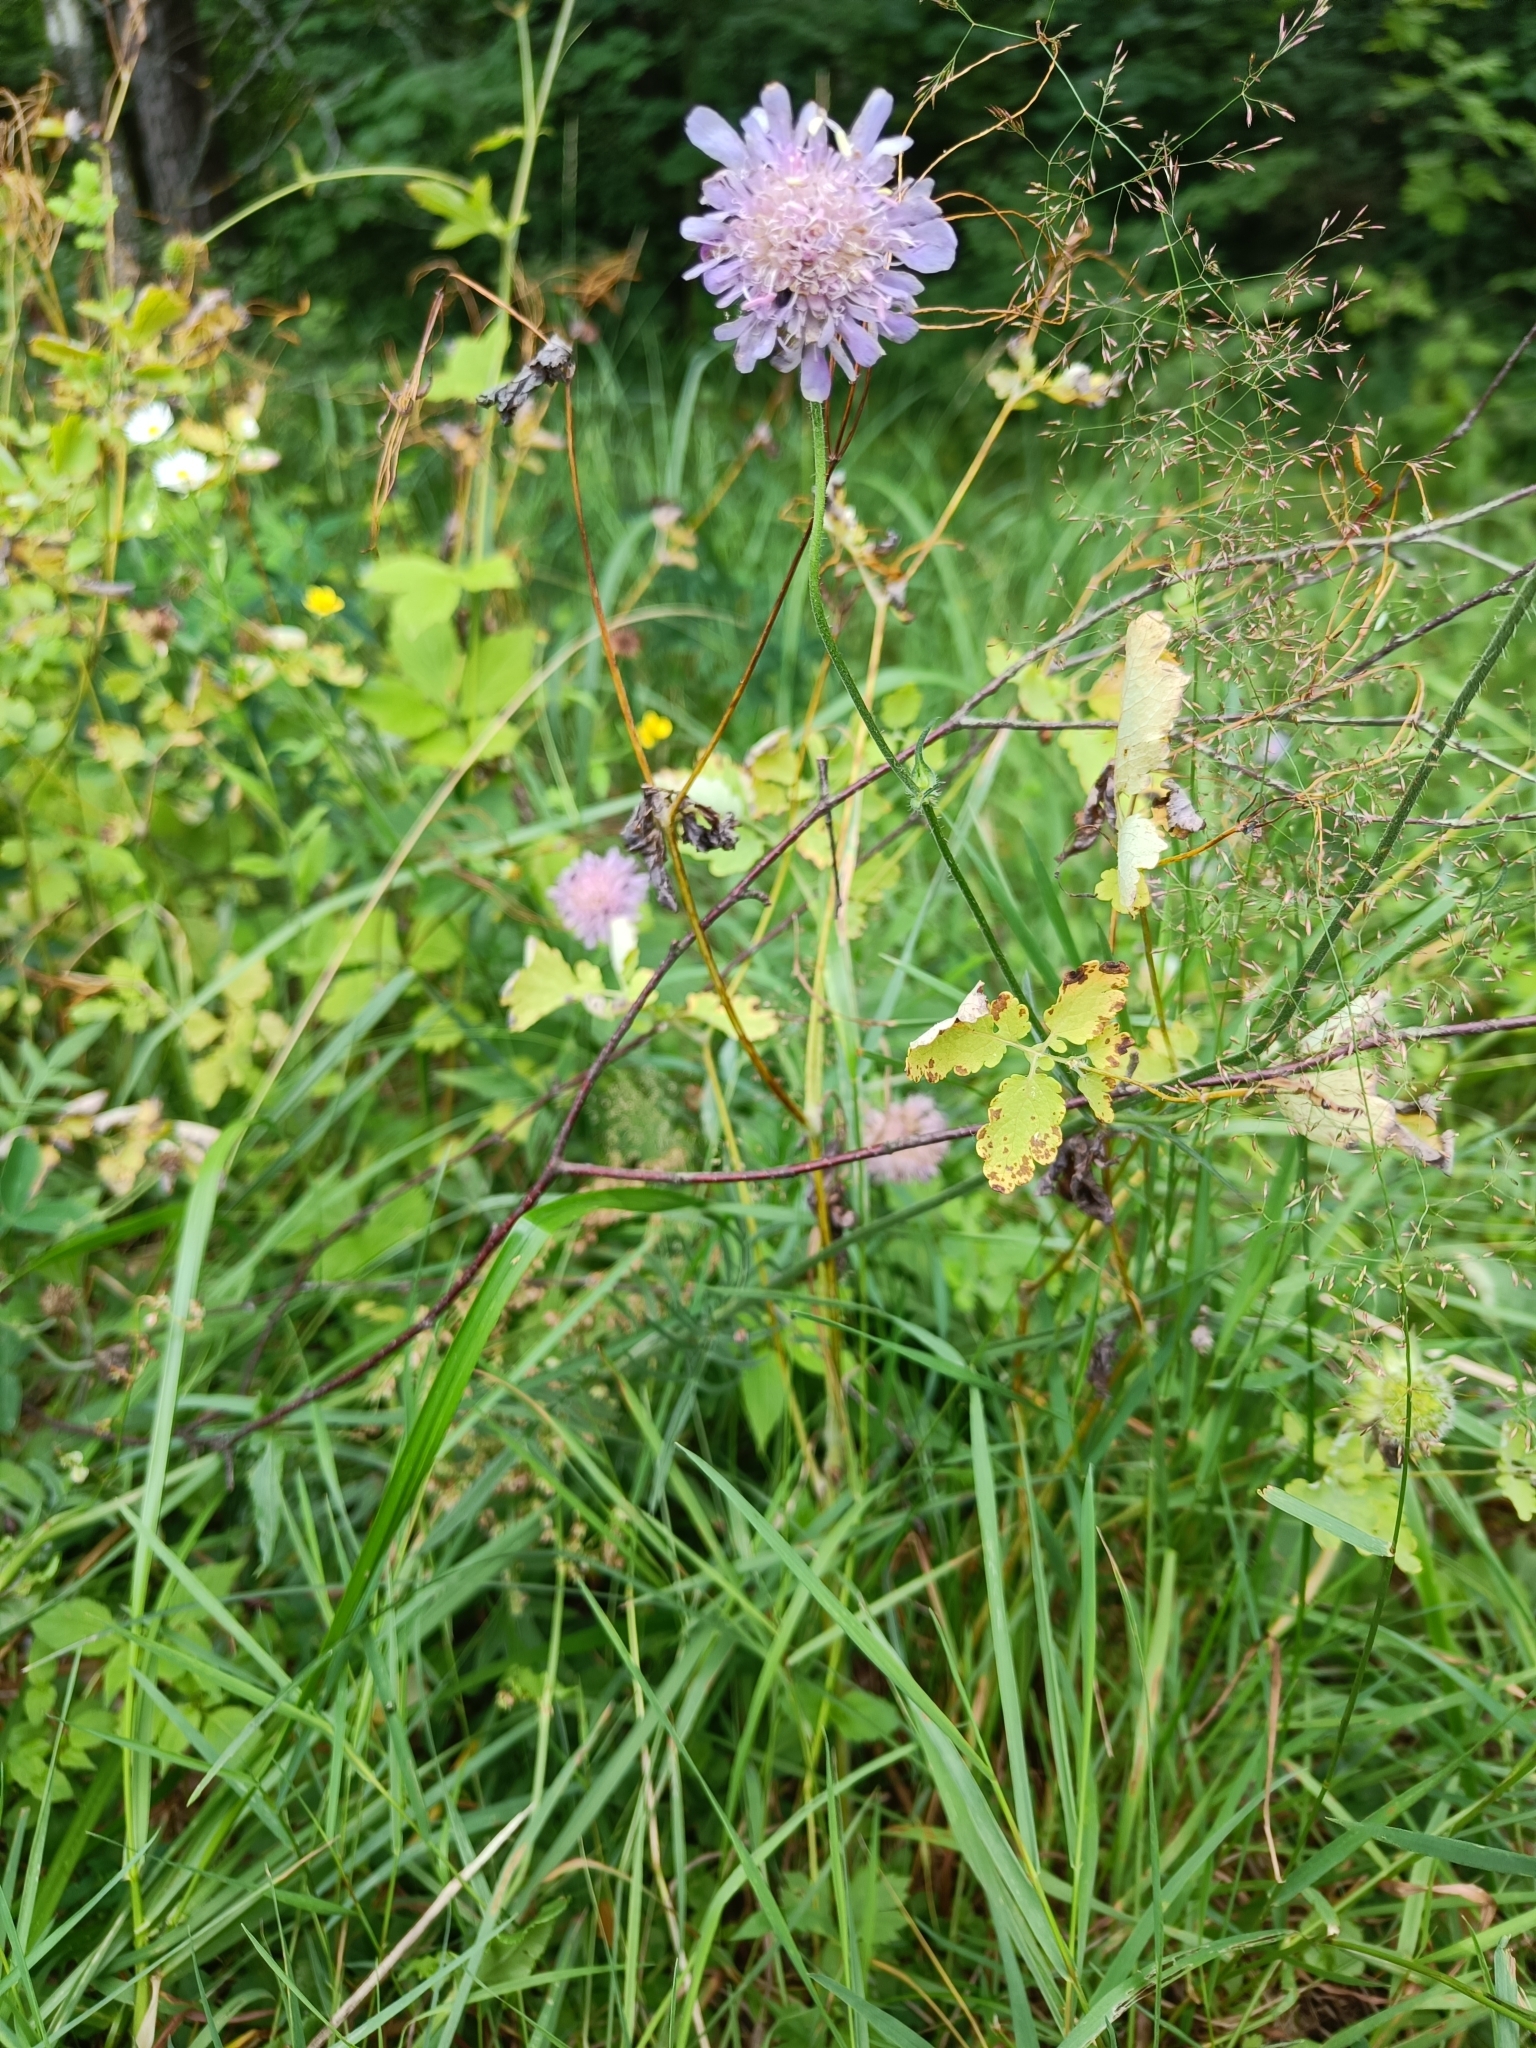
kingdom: Plantae
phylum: Tracheophyta
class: Magnoliopsida
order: Dipsacales
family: Caprifoliaceae
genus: Knautia
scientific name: Knautia arvensis
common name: Field scabiosa
